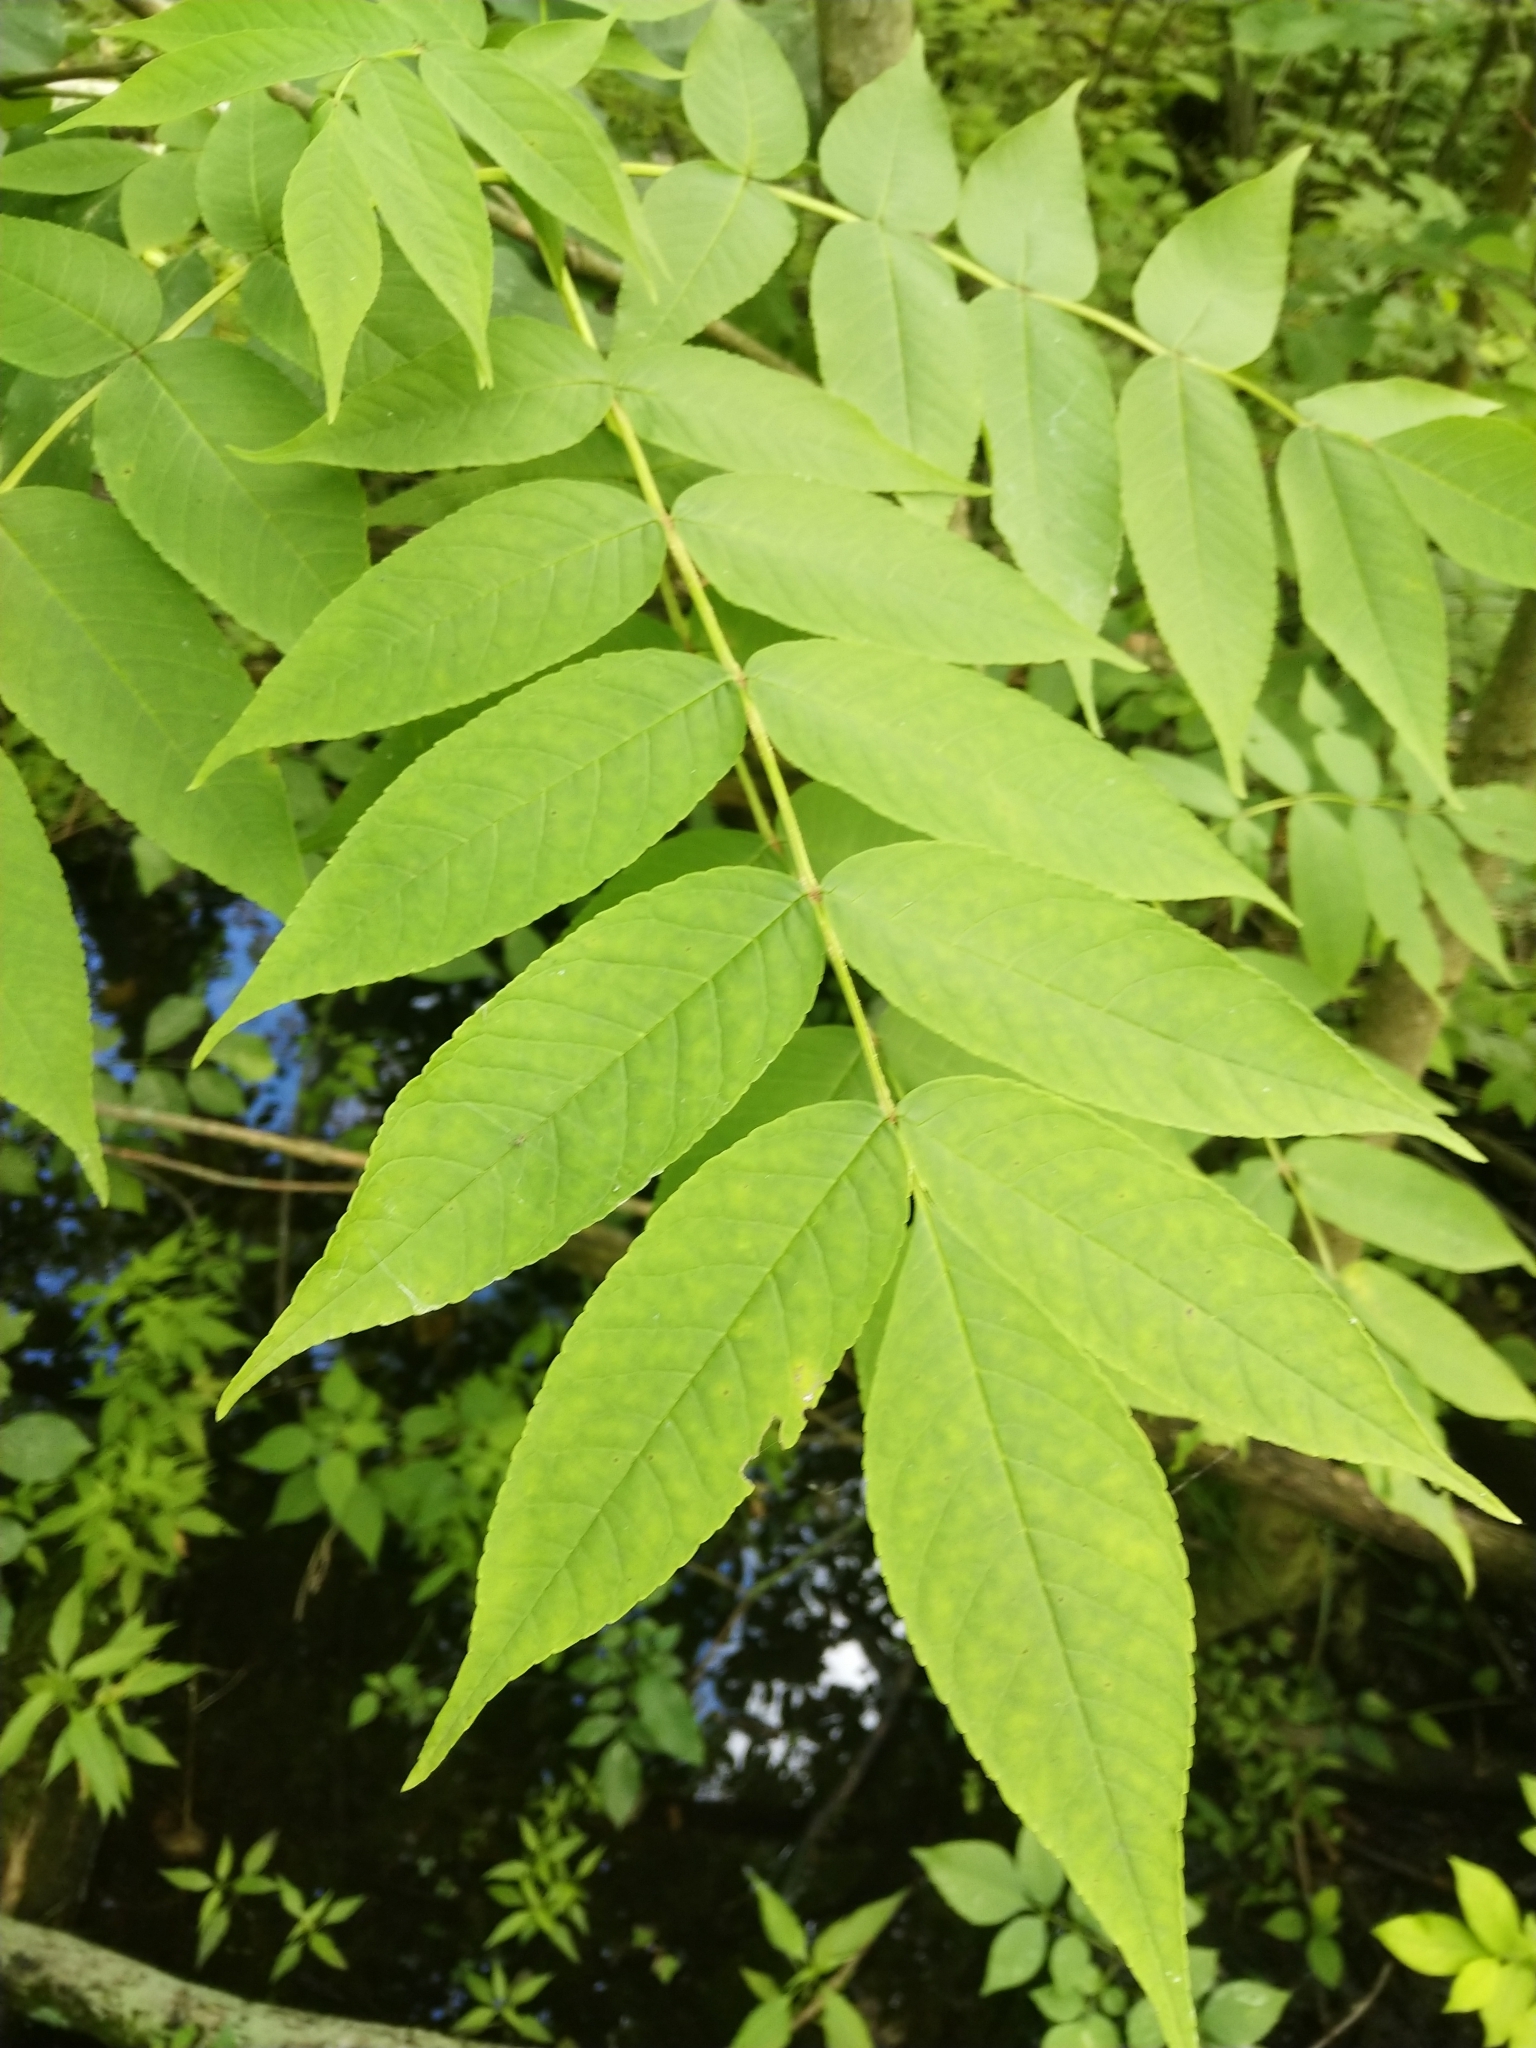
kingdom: Plantae
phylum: Tracheophyta
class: Magnoliopsida
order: Lamiales
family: Oleaceae
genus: Fraxinus
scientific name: Fraxinus nigra
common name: Black ash
